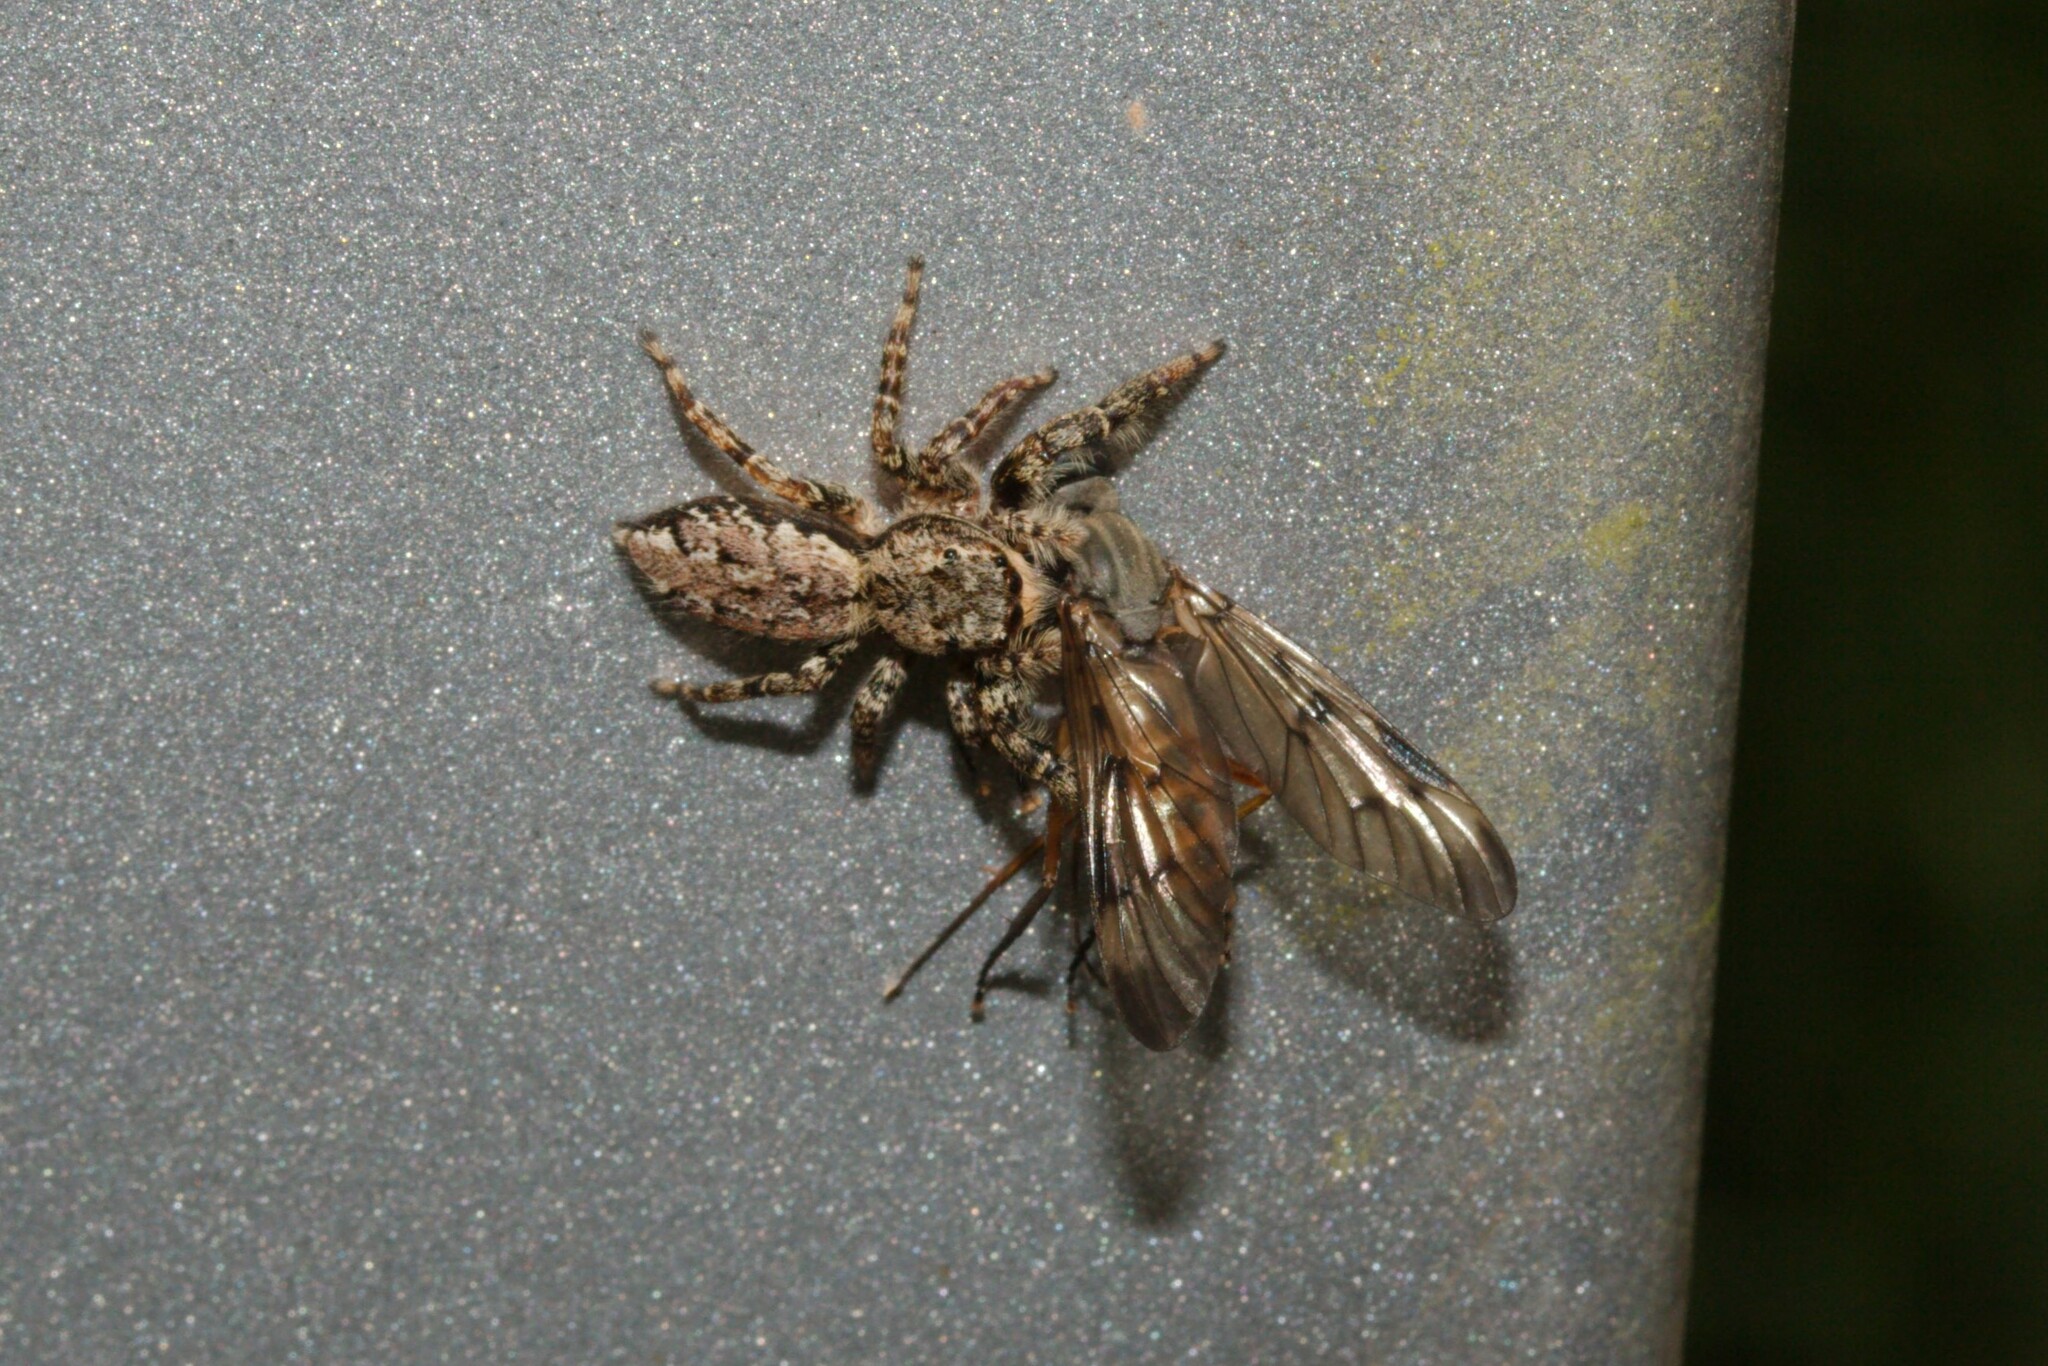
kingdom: Animalia
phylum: Arthropoda
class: Arachnida
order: Araneae
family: Salticidae
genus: Marpissa
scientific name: Marpissa muscosa
